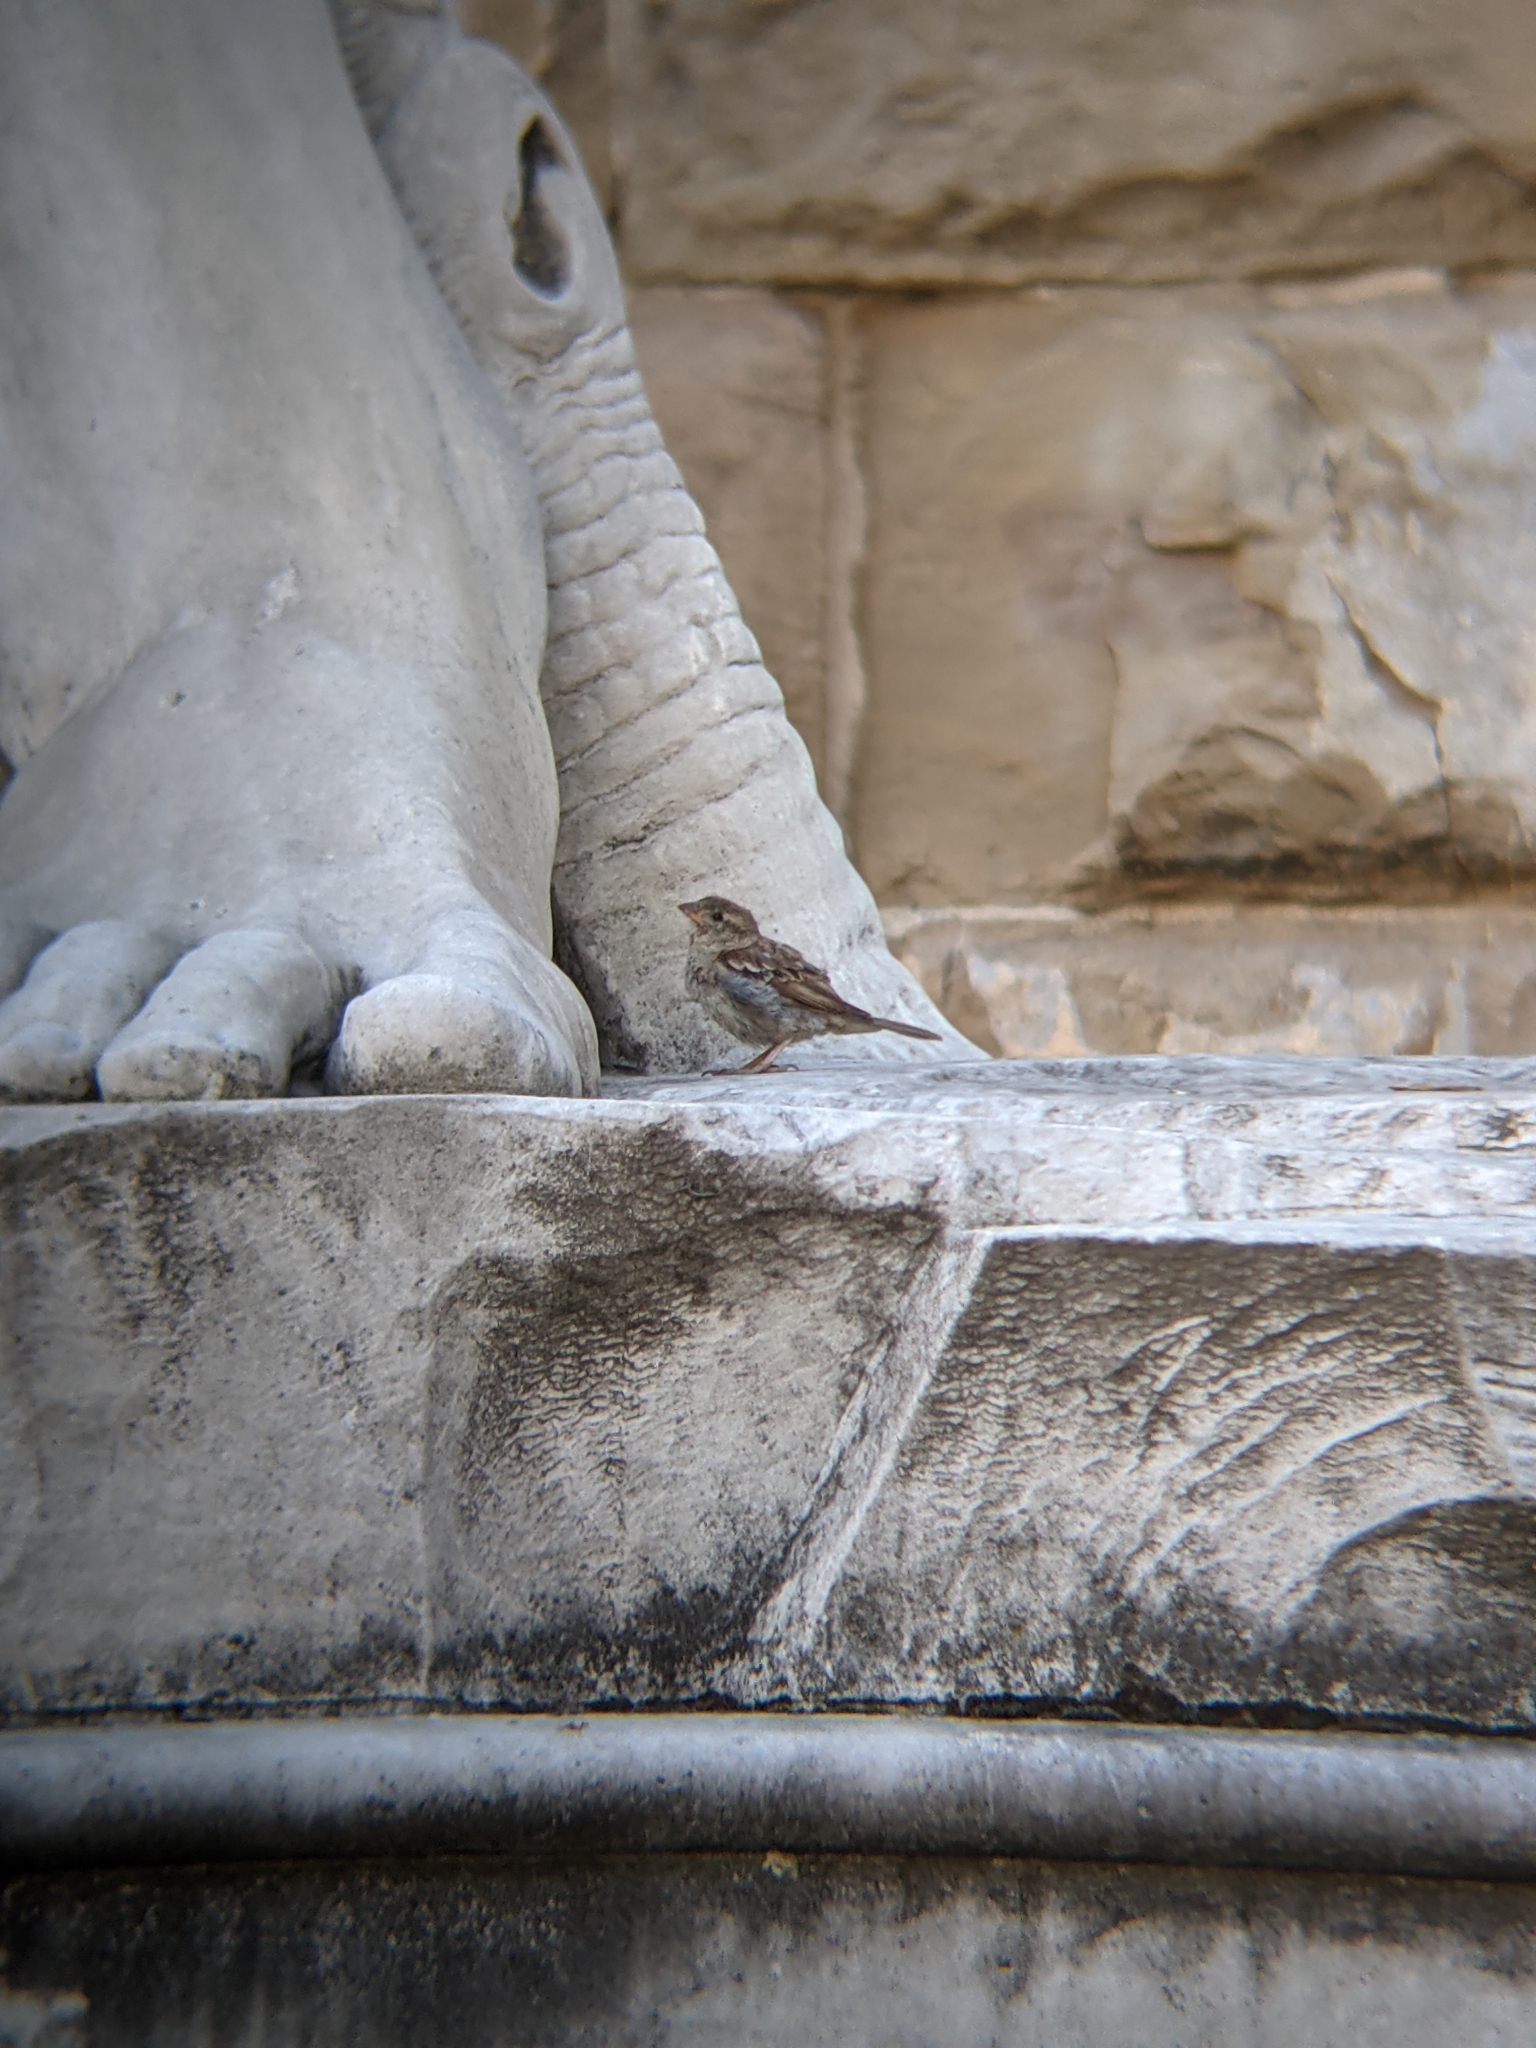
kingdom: Animalia
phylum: Chordata
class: Aves
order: Passeriformes
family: Passeridae
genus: Passer
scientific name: Passer italiae
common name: Italian sparrow
